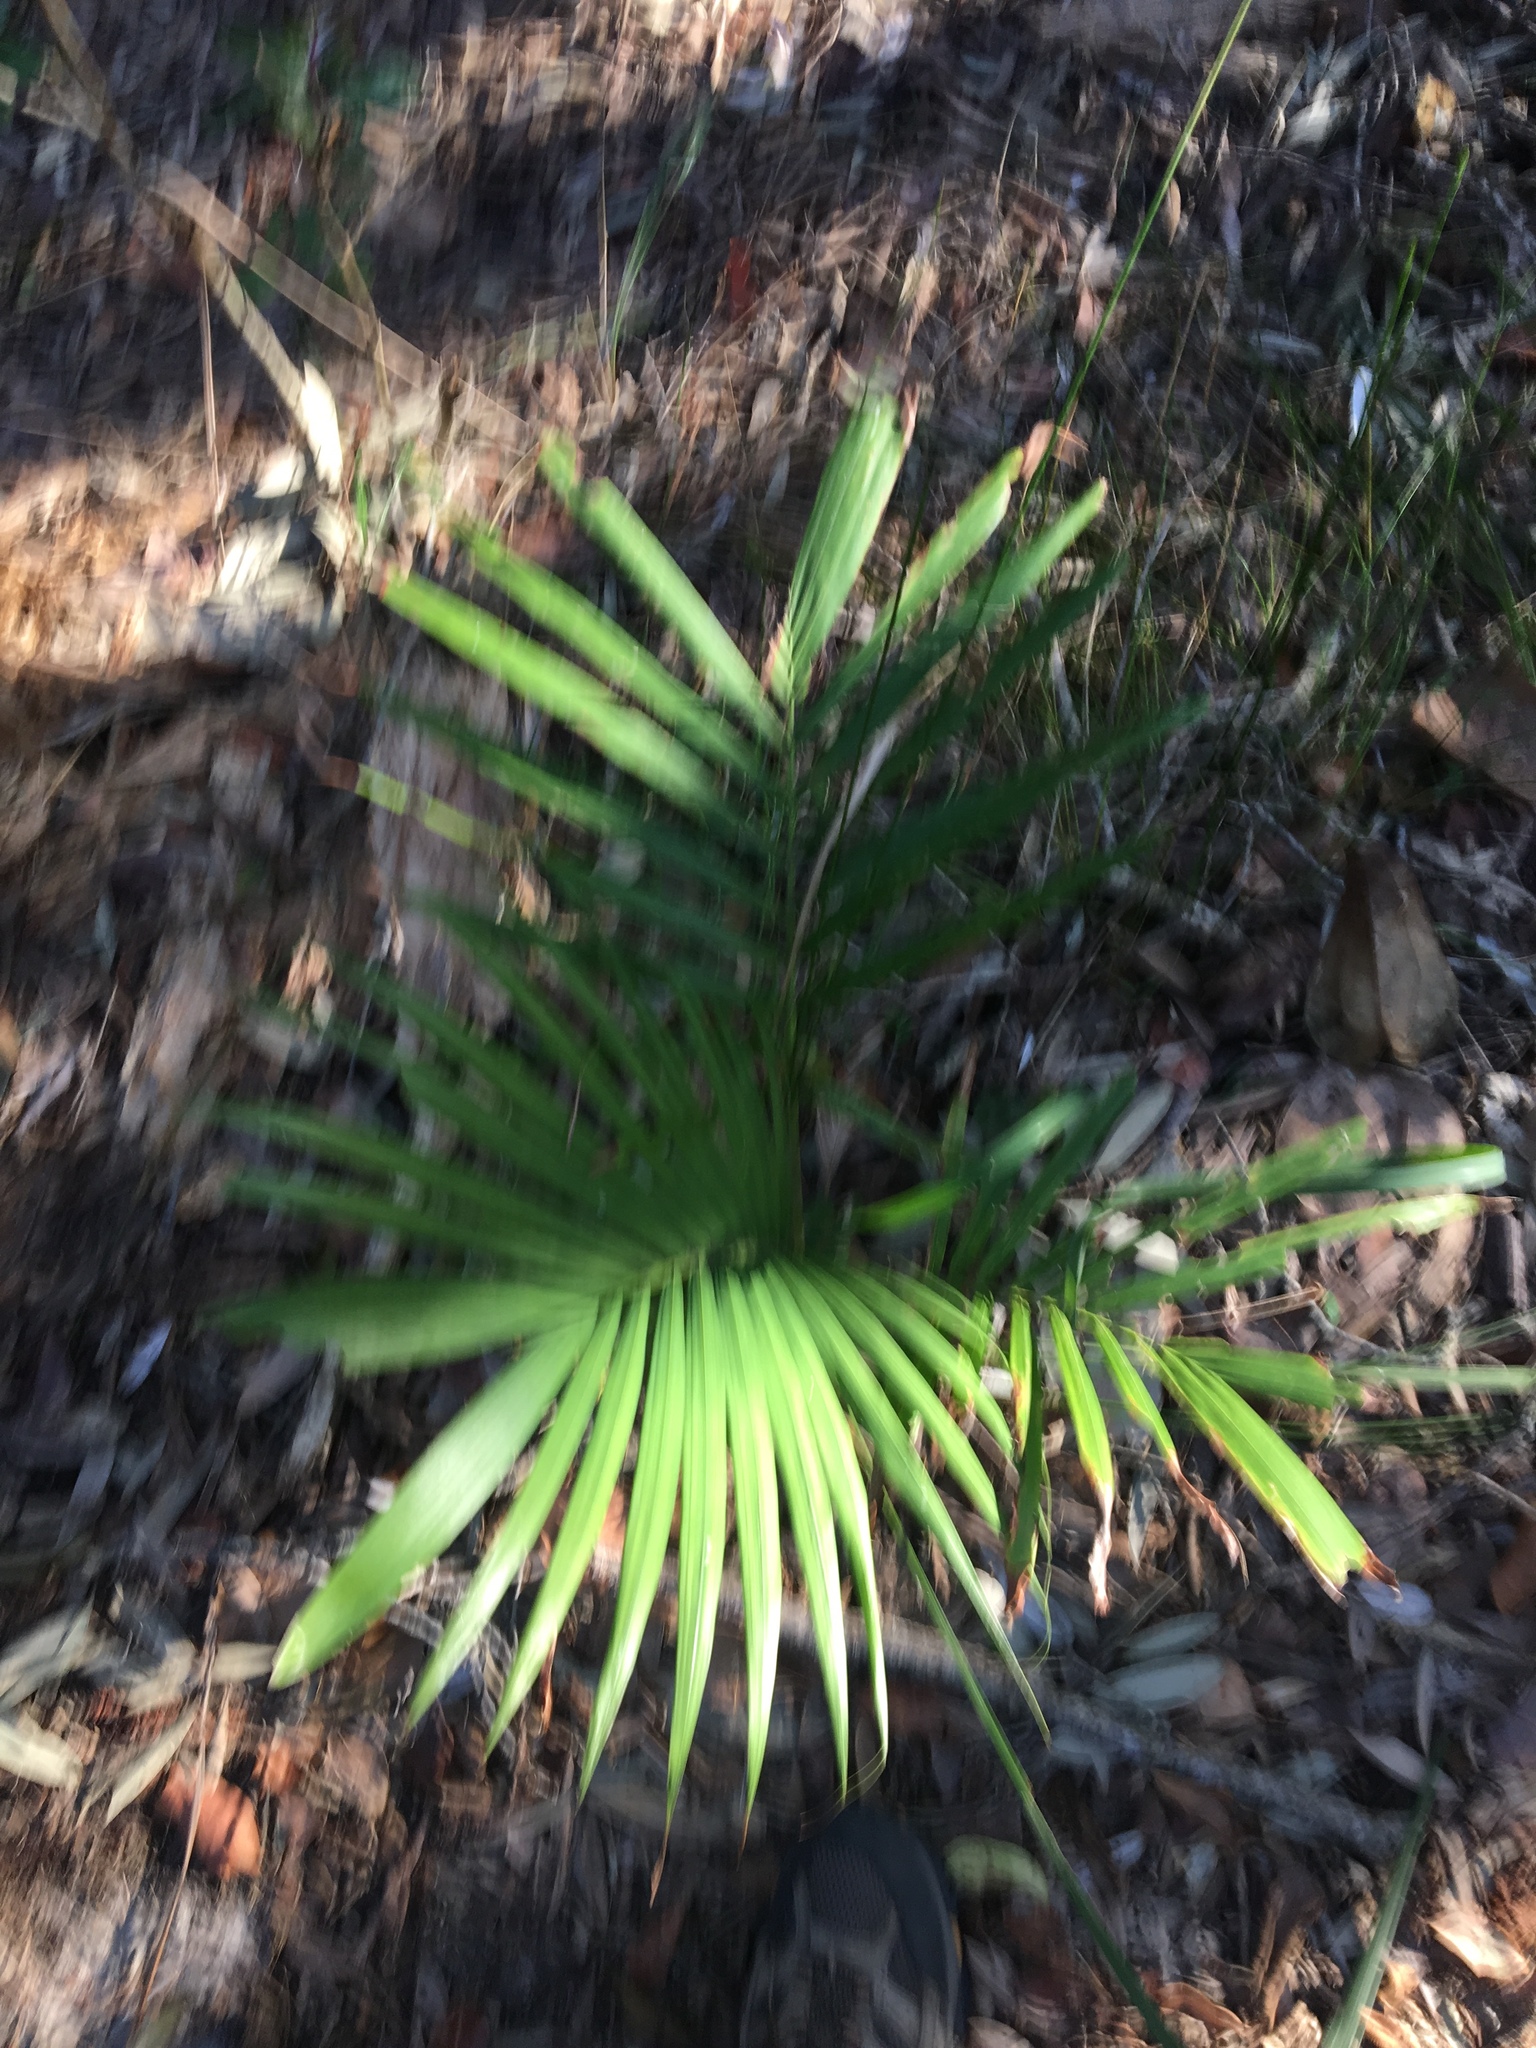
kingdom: Plantae
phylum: Tracheophyta
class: Liliopsida
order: Arecales
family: Arecaceae
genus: Archontophoenix
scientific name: Archontophoenix cunninghamiana
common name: Piccabeen bangalow palm
